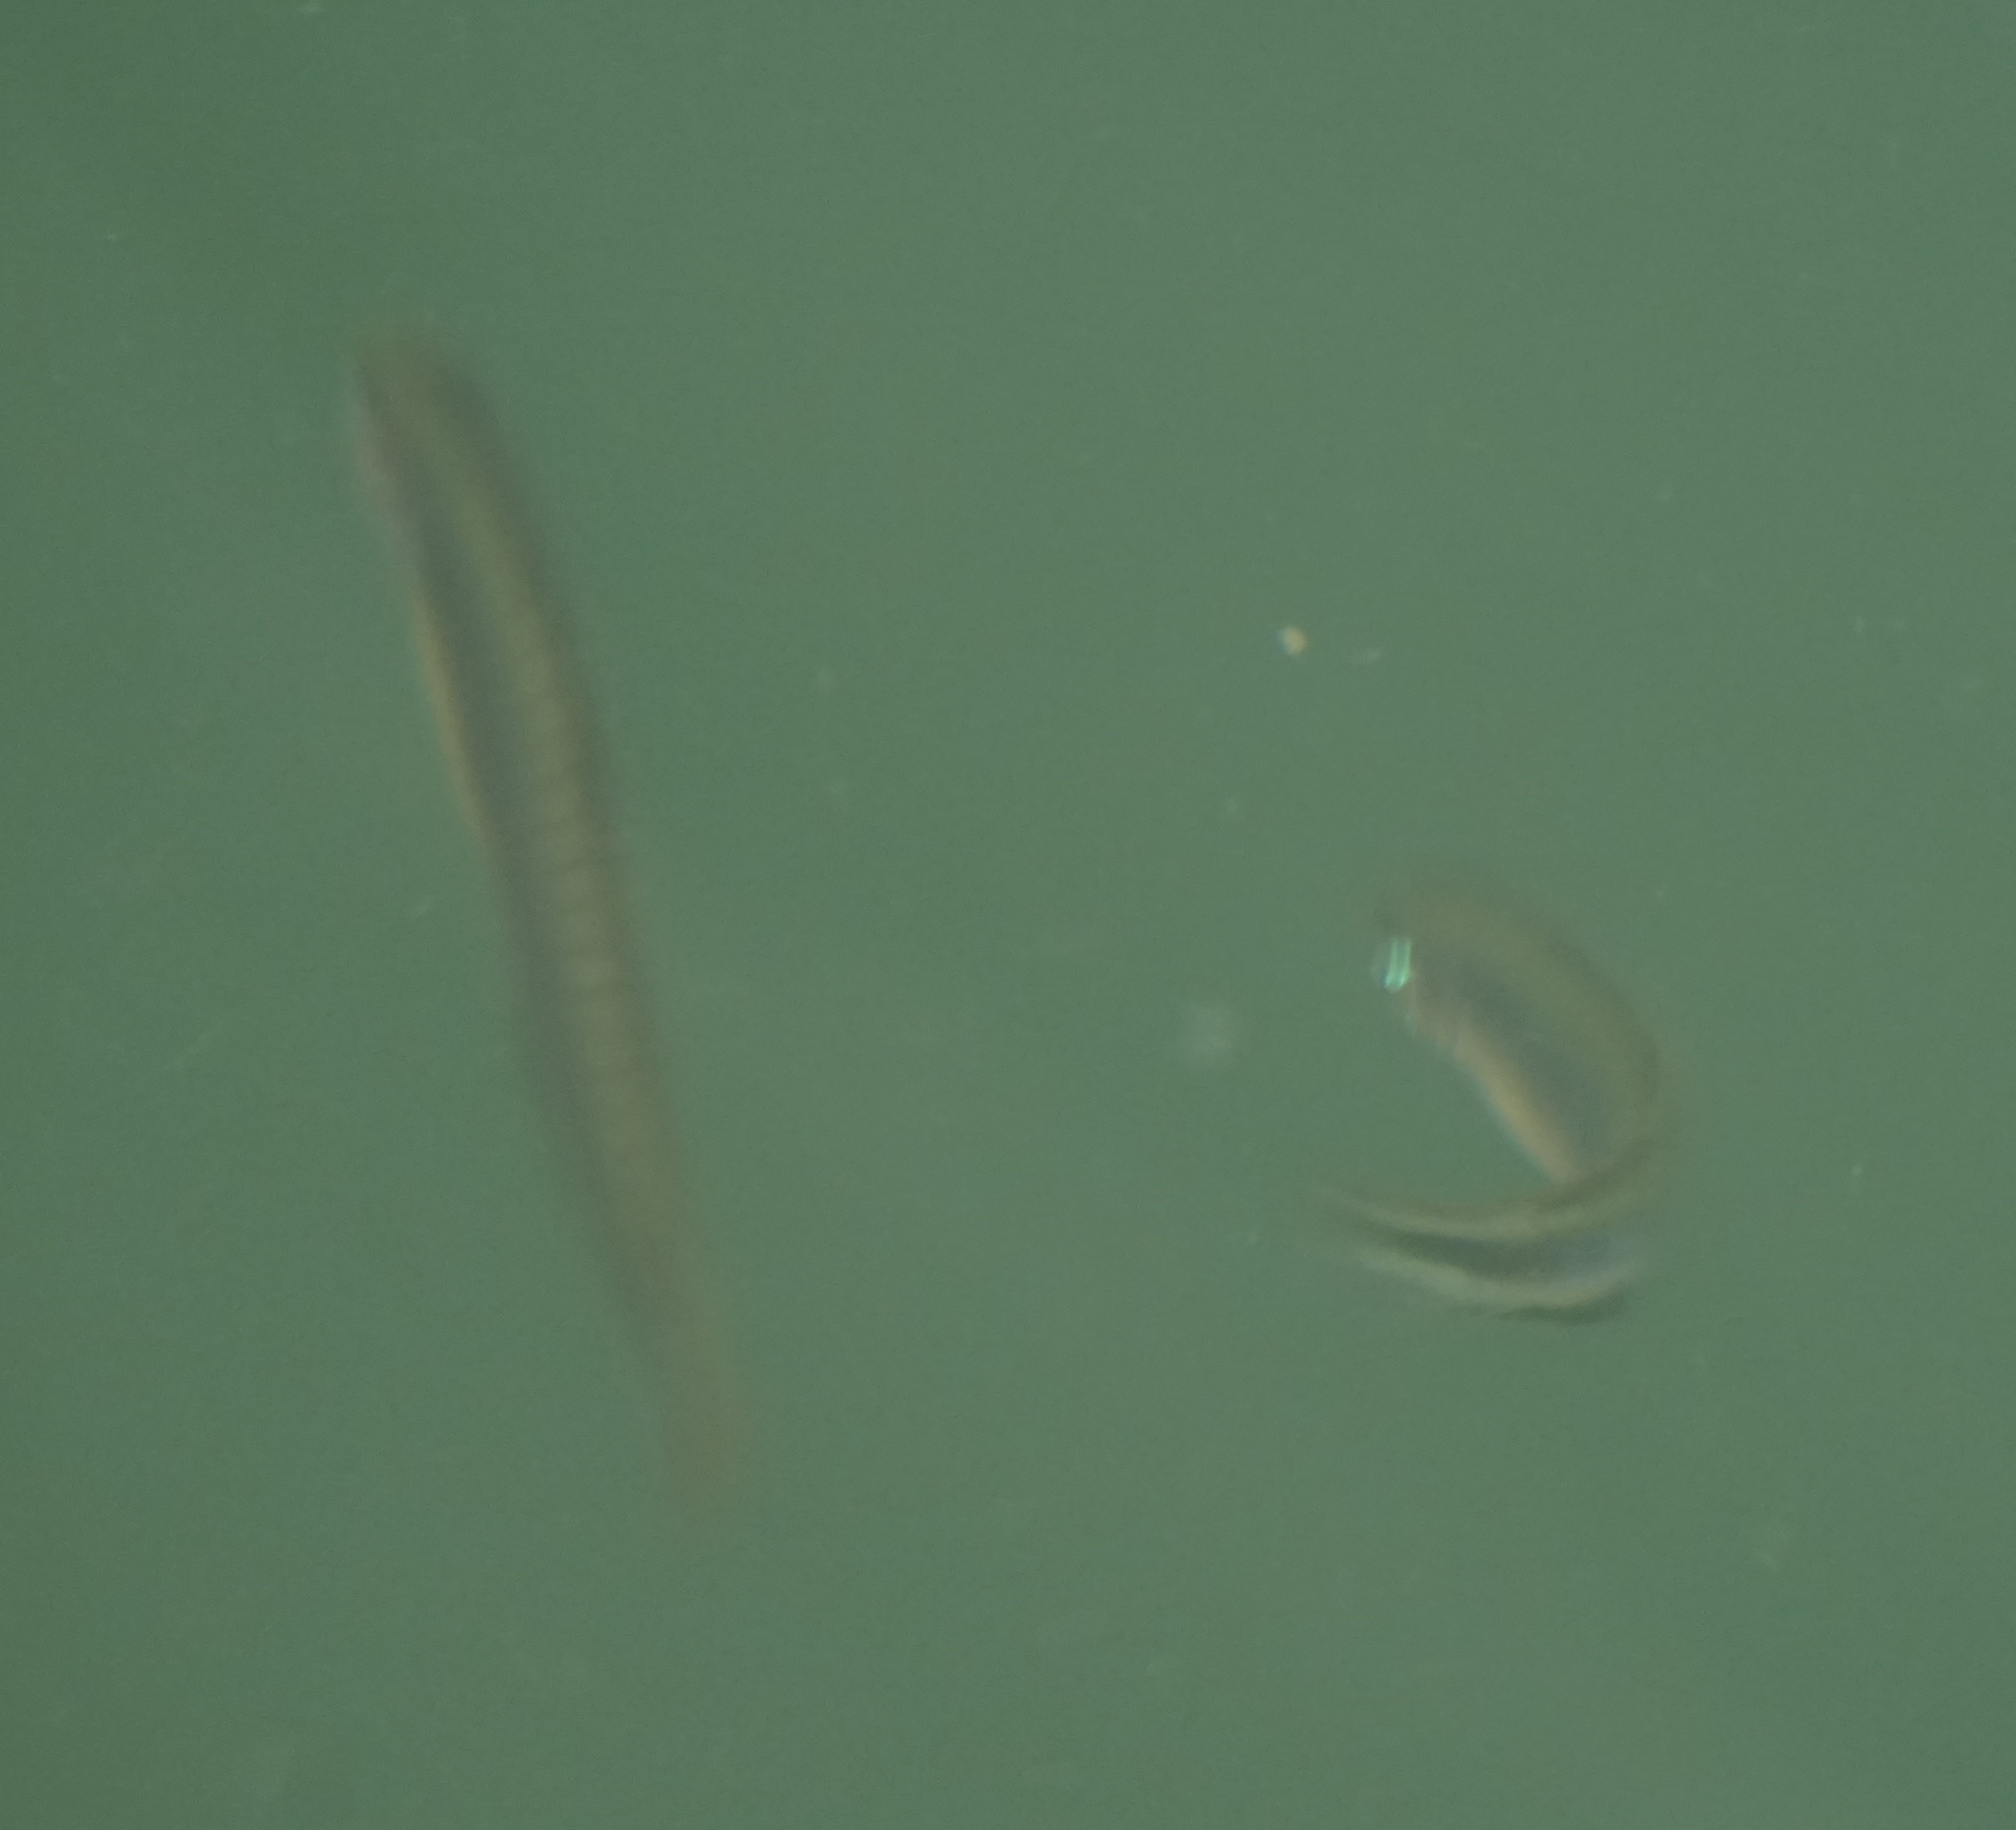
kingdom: Animalia
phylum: Chordata
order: Perciformes
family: Microdesmidae
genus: Parioglossus
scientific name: Parioglossus marginalis
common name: Blackmargin dartfish
